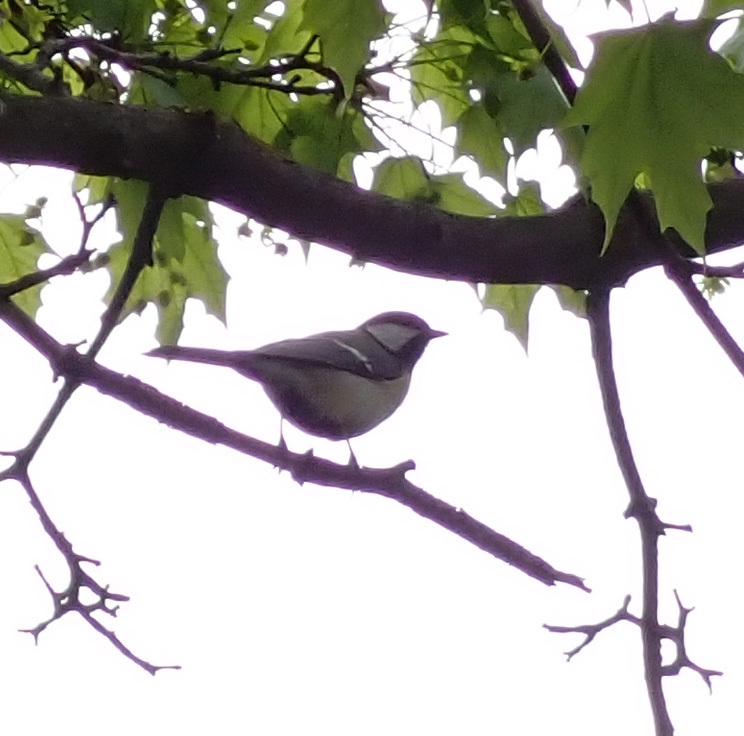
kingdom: Animalia
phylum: Chordata
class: Aves
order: Passeriformes
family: Paridae
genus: Parus
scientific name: Parus major
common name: Great tit
